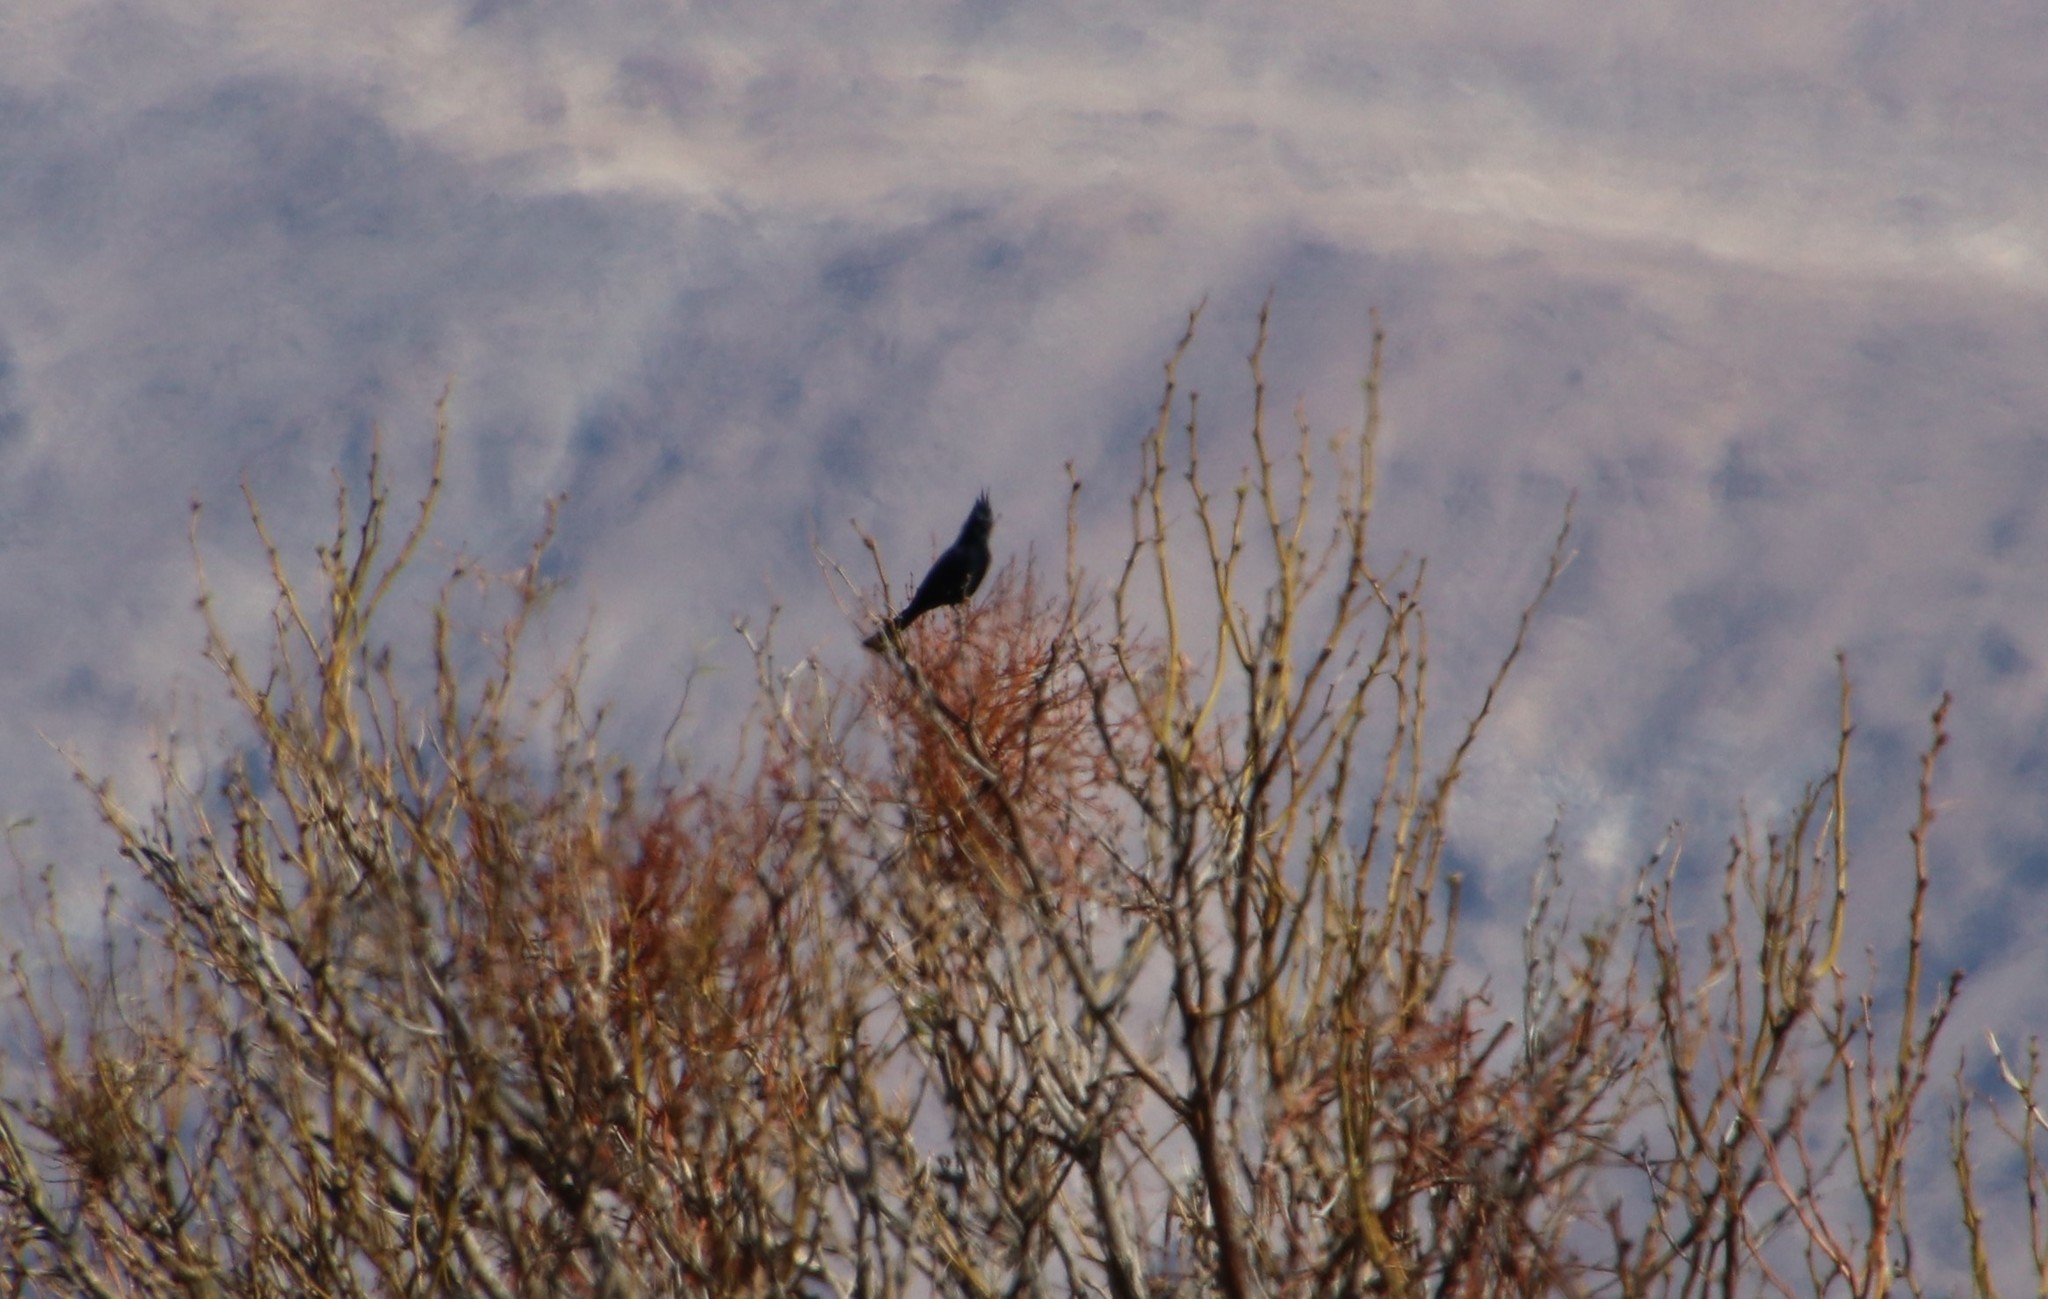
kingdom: Animalia
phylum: Chordata
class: Aves
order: Passeriformes
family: Ptilogonatidae
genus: Phainopepla
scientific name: Phainopepla nitens
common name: Phainopepla
